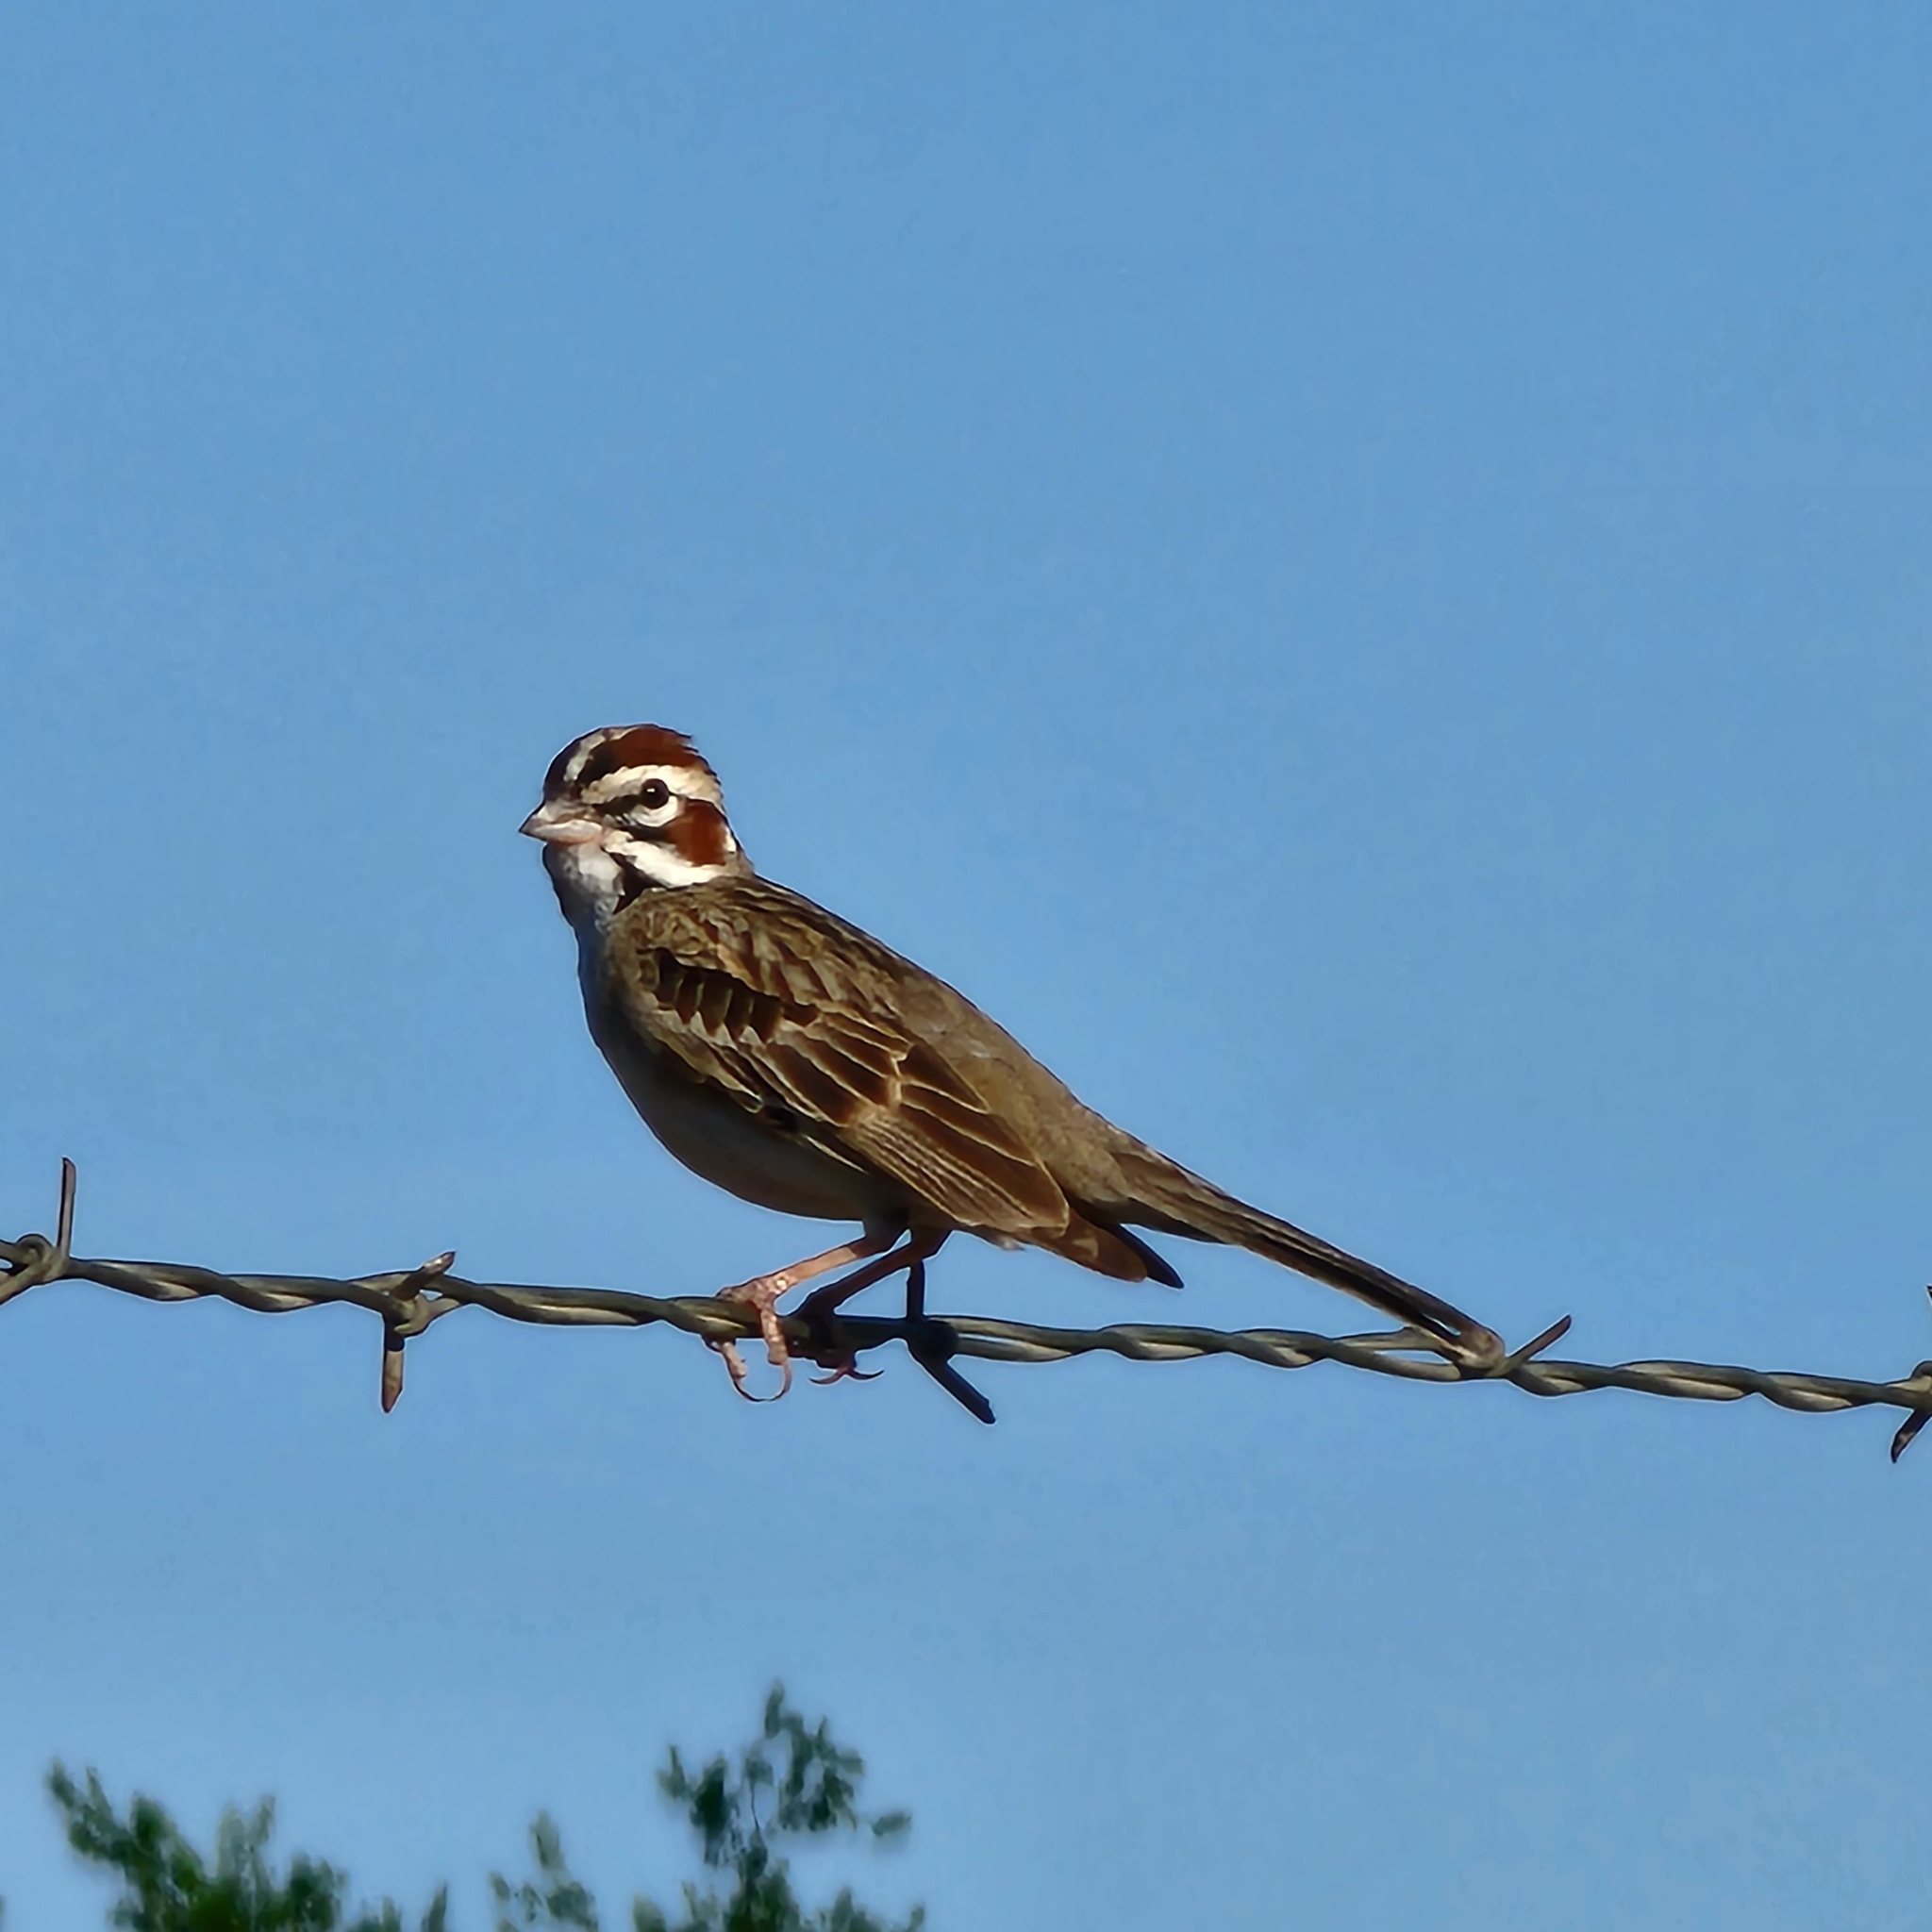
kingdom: Animalia
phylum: Chordata
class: Aves
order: Passeriformes
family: Passerellidae
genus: Chondestes
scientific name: Chondestes grammacus
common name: Lark sparrow
